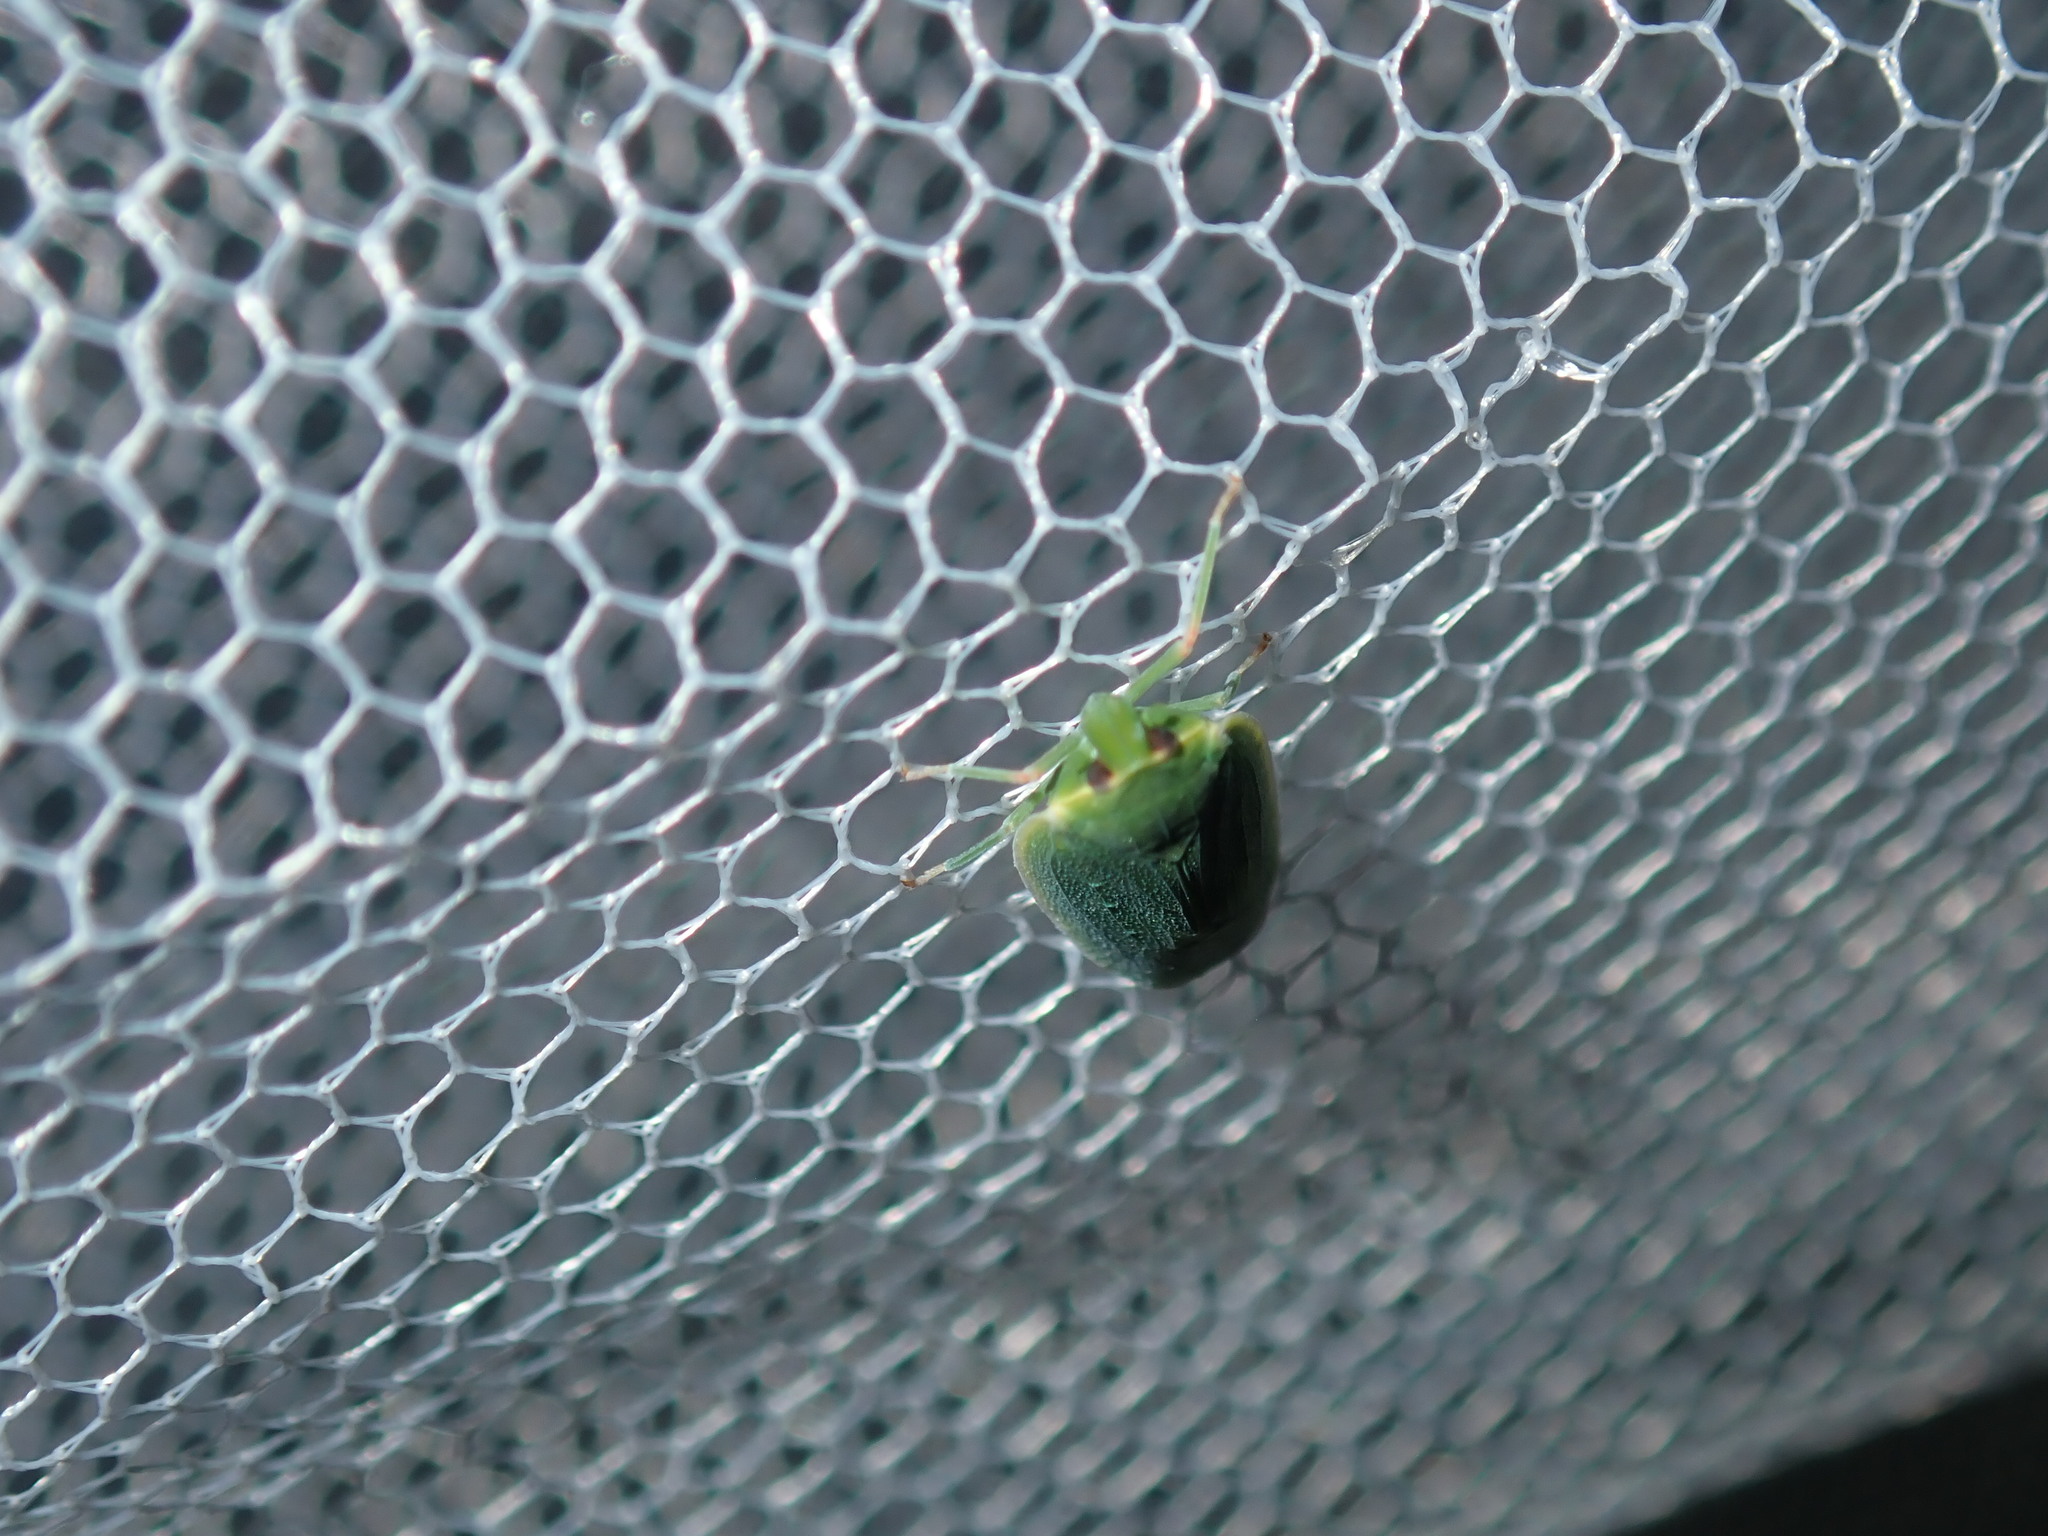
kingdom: Animalia
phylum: Arthropoda
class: Insecta
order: Hemiptera
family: Achilidae
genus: Anabunda
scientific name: Anabunda retortinervis
